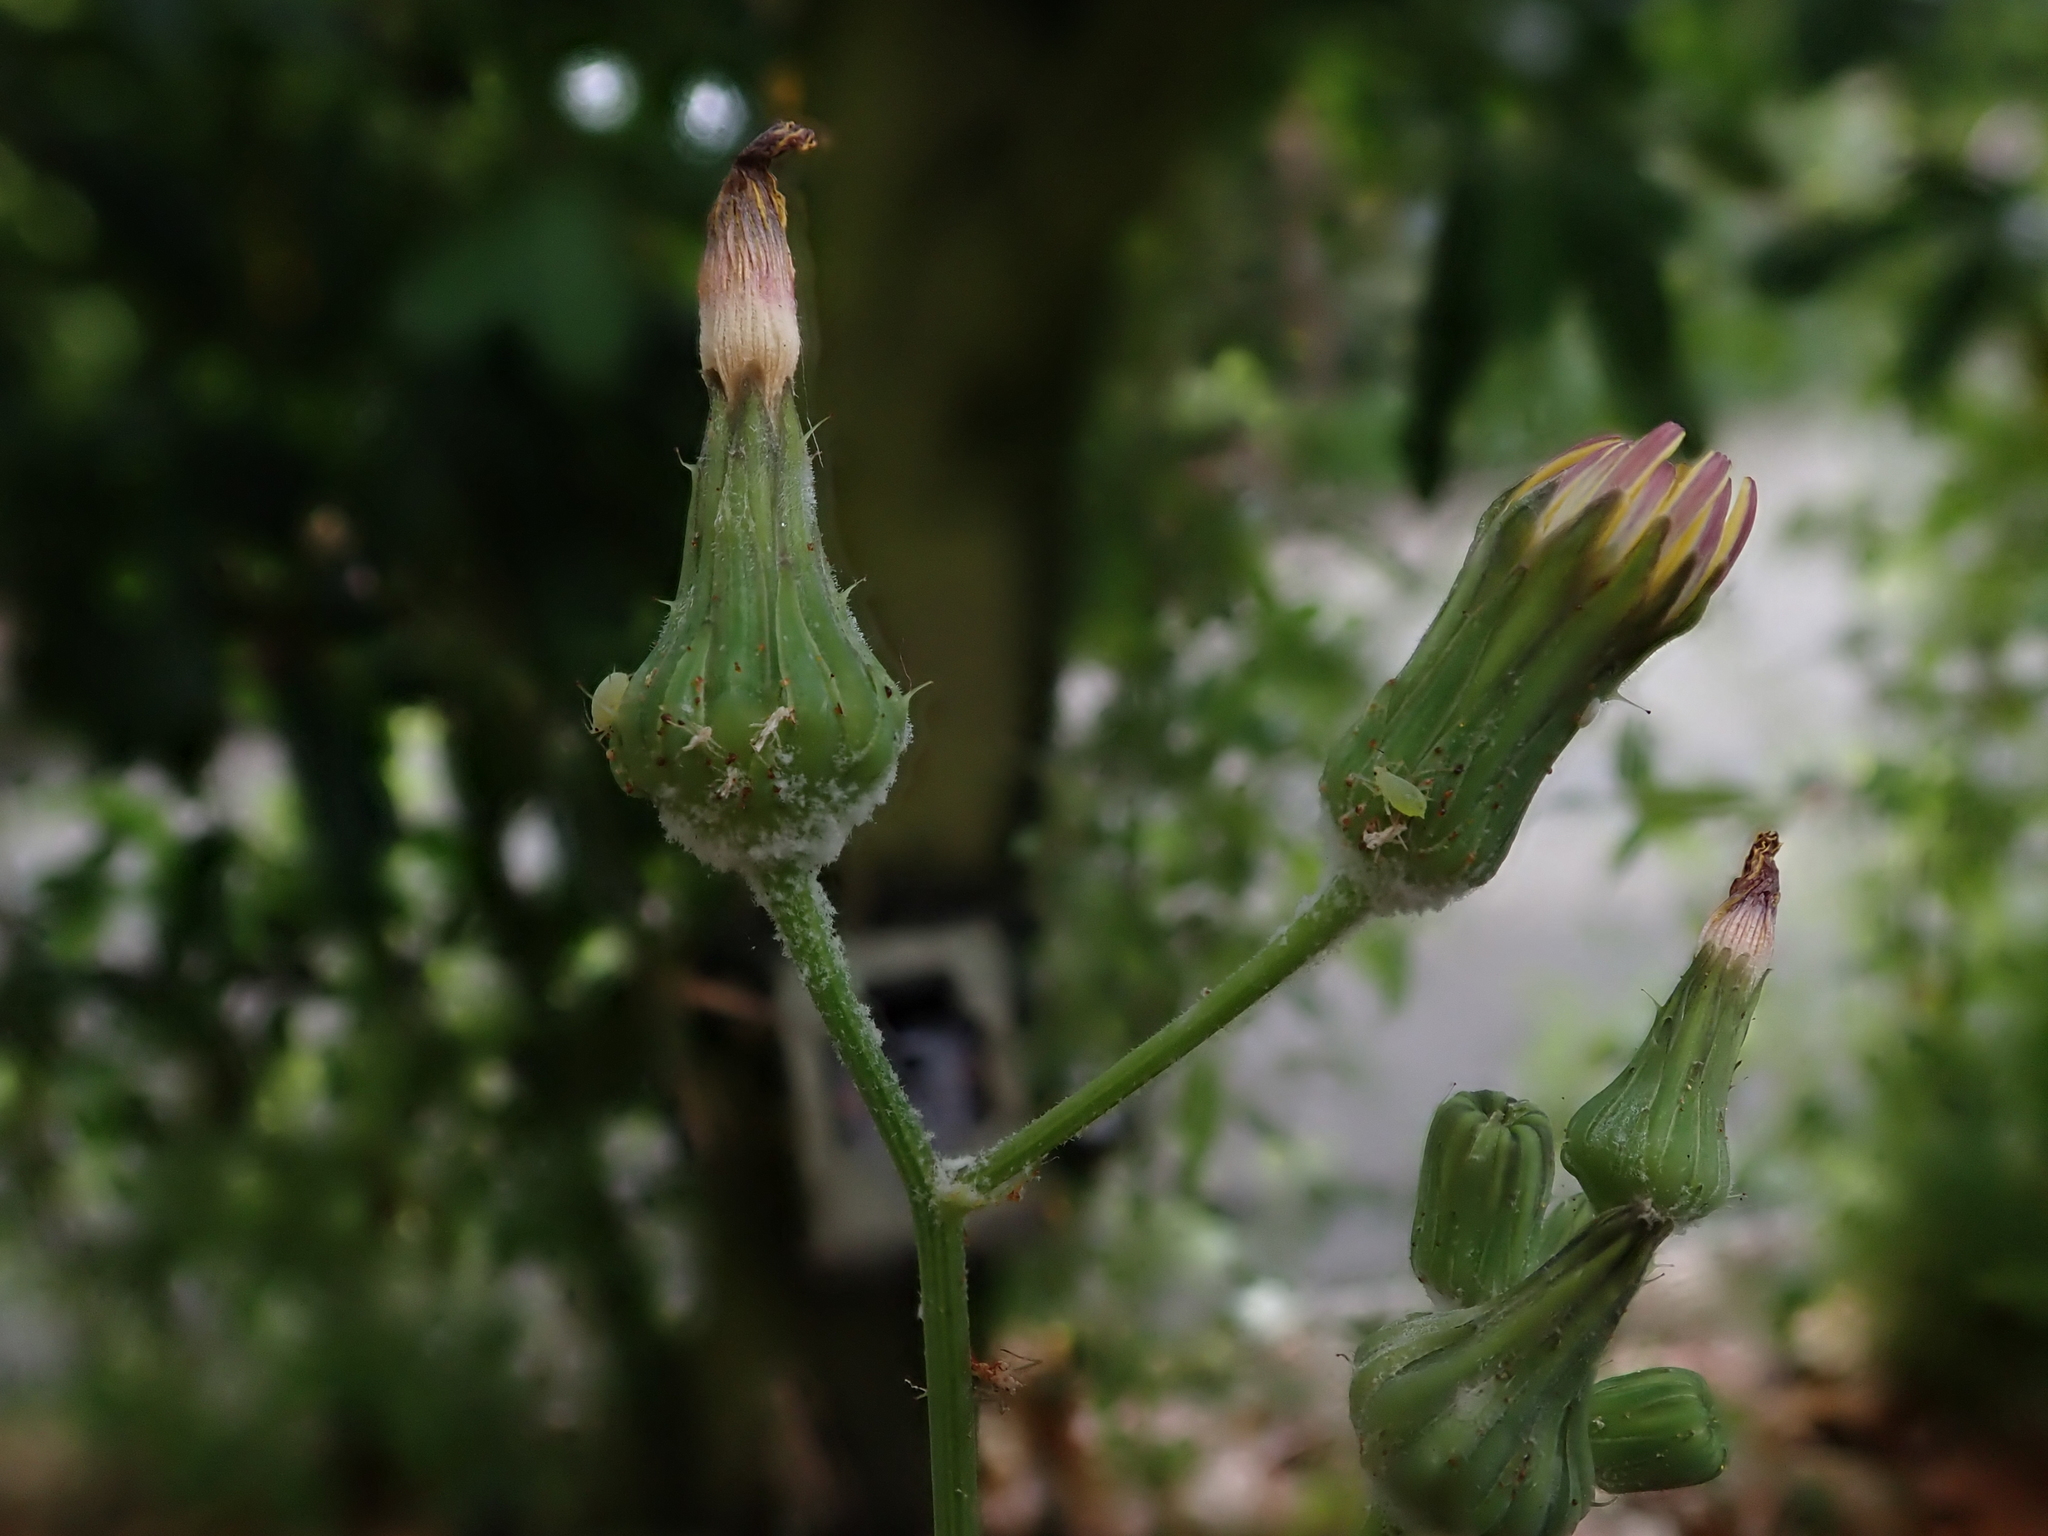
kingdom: Plantae
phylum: Tracheophyta
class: Magnoliopsida
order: Asterales
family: Asteraceae
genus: Sonchus
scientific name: Sonchus oleraceus
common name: Common sowthistle
